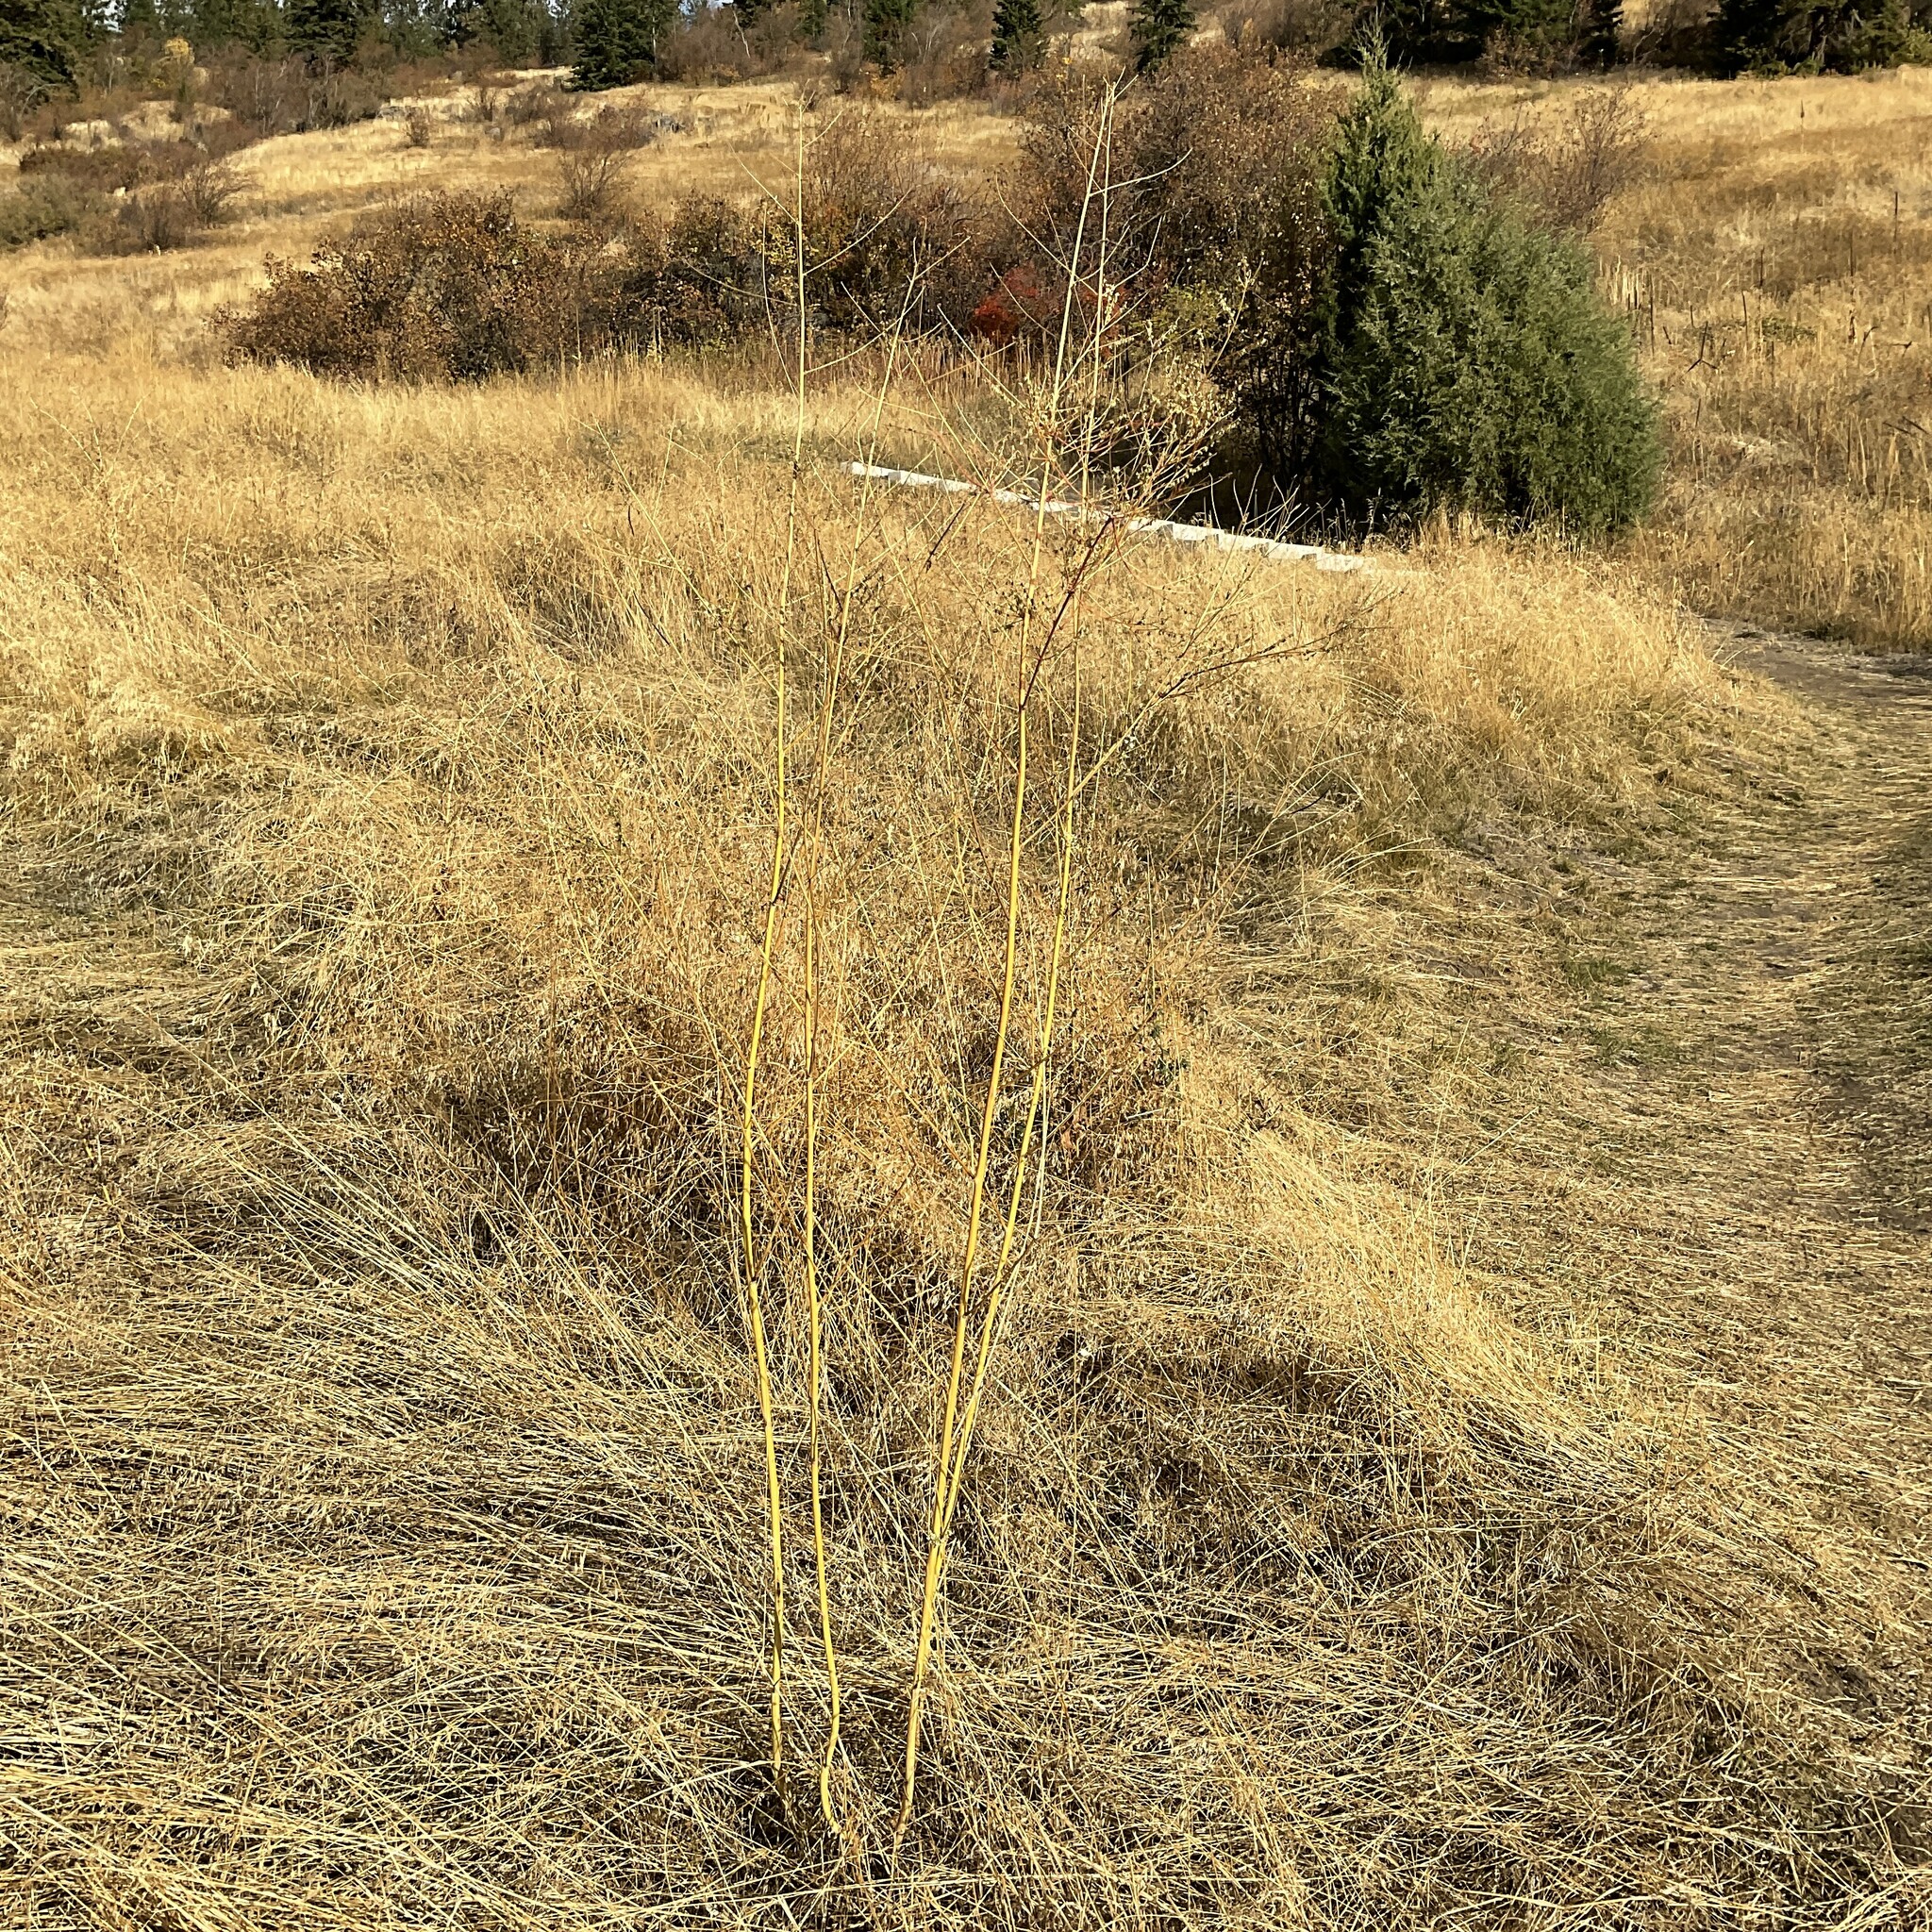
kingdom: Plantae
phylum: Tracheophyta
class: Magnoliopsida
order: Fabales
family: Fabaceae
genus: Melilotus
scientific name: Melilotus albus
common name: White melilot
